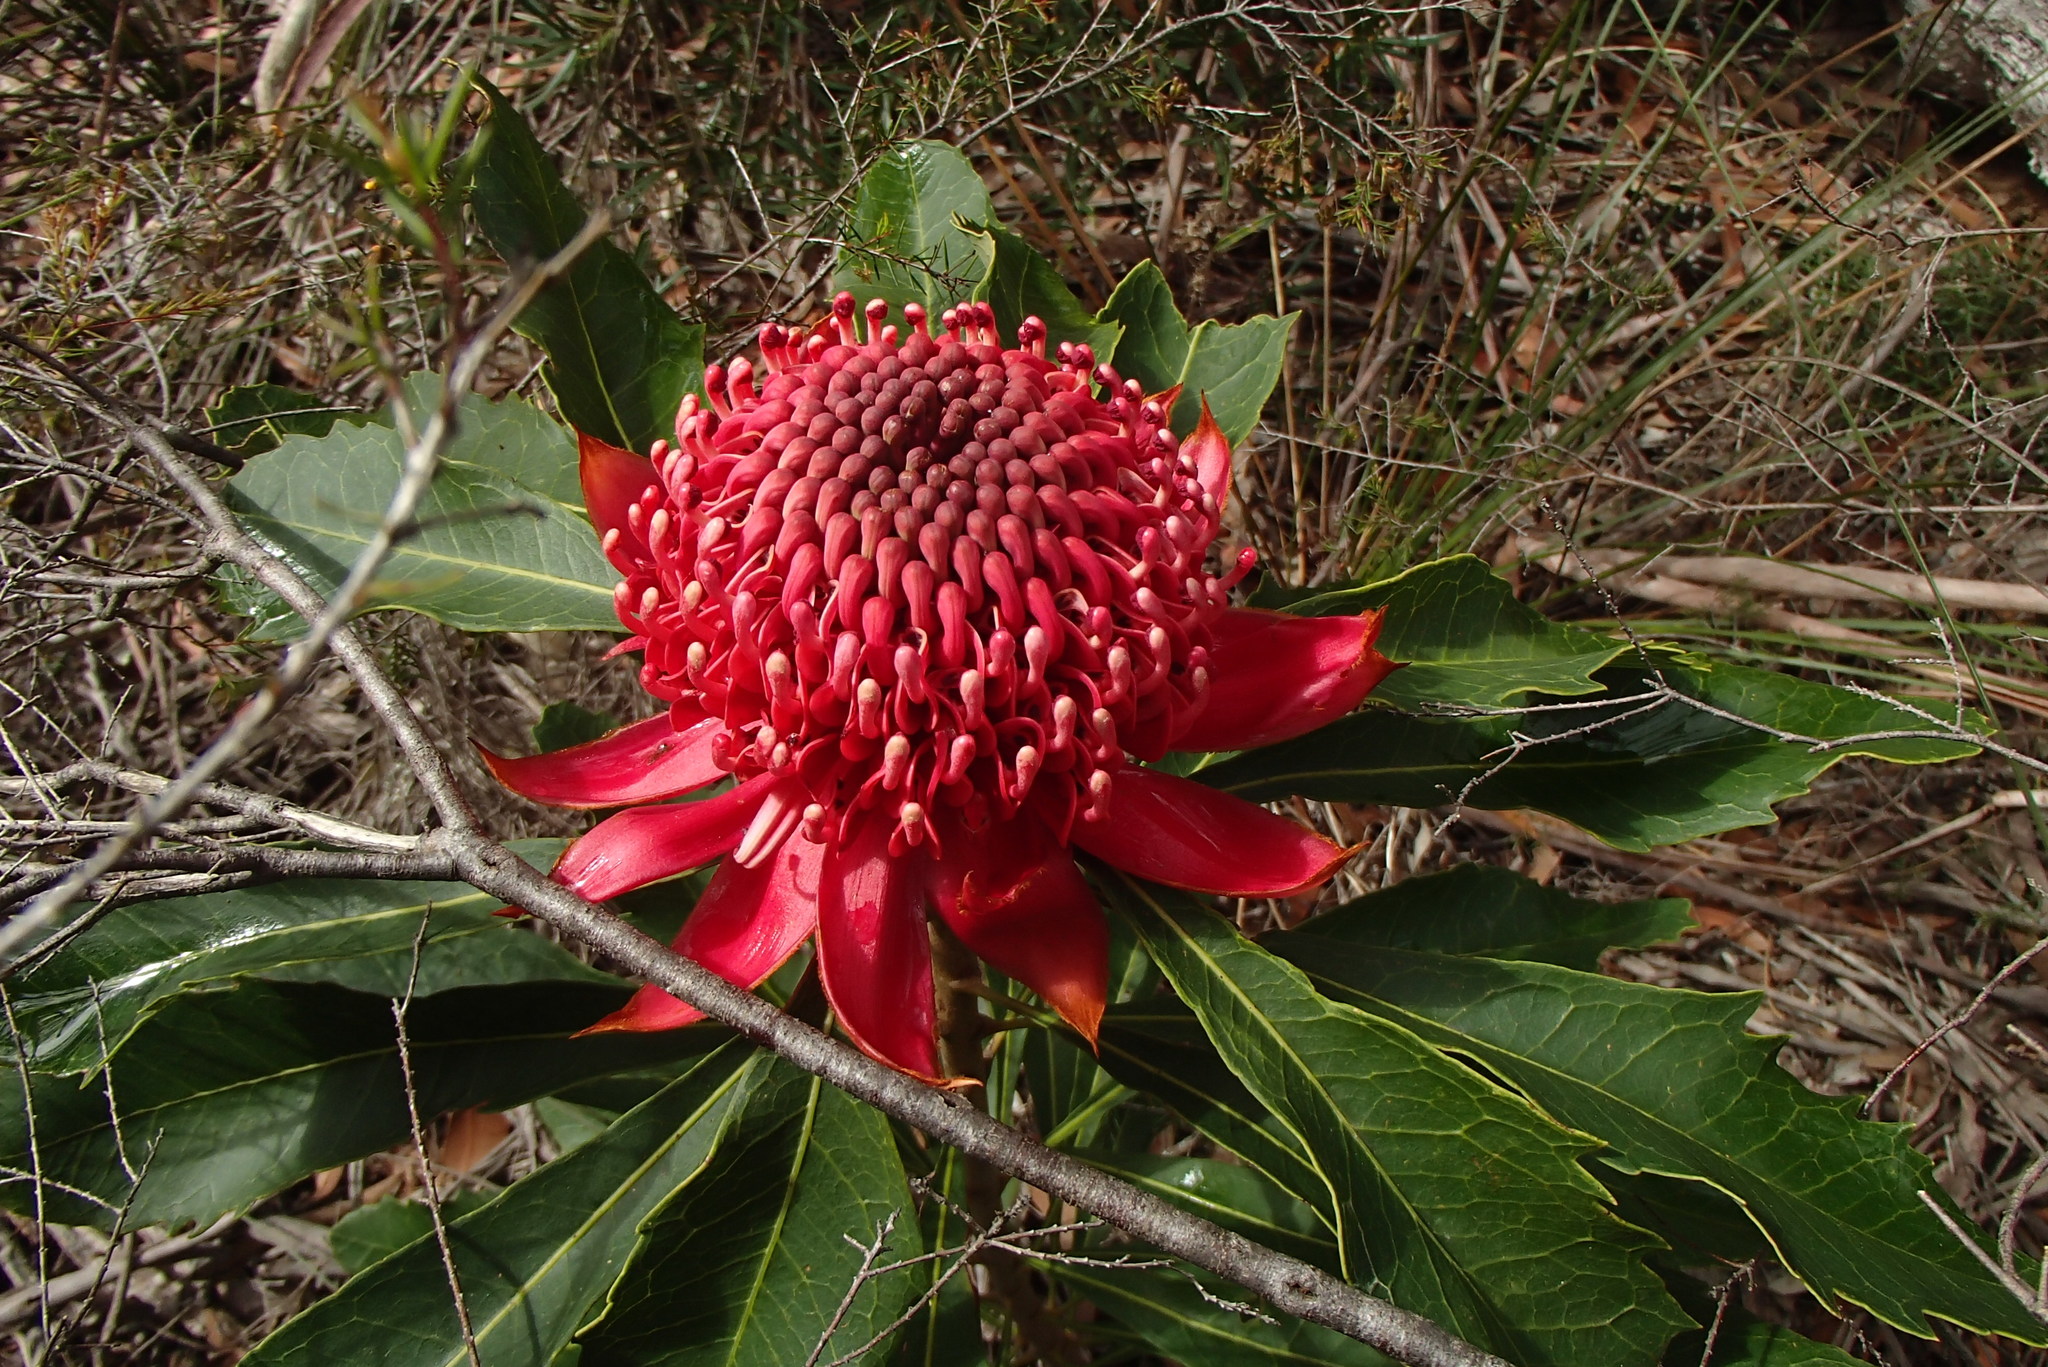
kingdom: Plantae
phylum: Tracheophyta
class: Magnoliopsida
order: Proteales
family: Proteaceae
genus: Telopea
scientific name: Telopea speciosissima
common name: New south wales waratah
